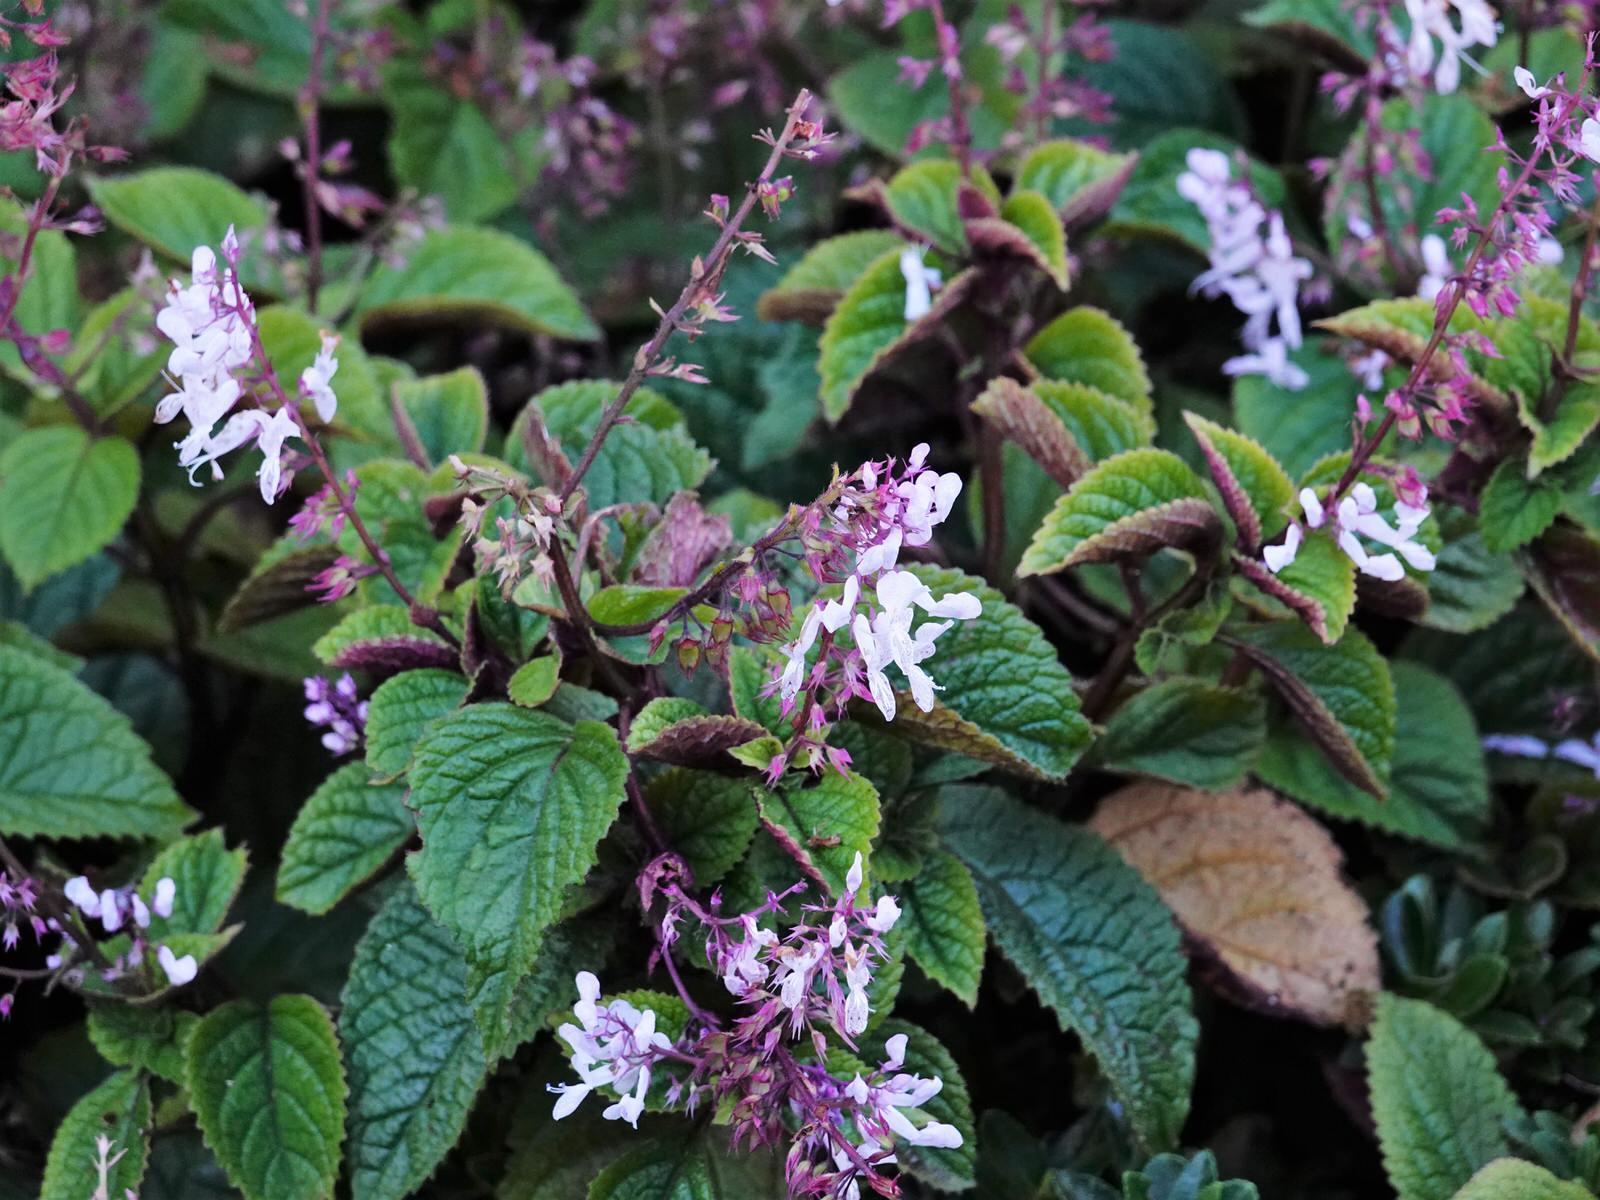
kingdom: Plantae
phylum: Tracheophyta
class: Magnoliopsida
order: Lamiales
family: Lamiaceae
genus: Plectranthus
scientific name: Plectranthus ciliatus
